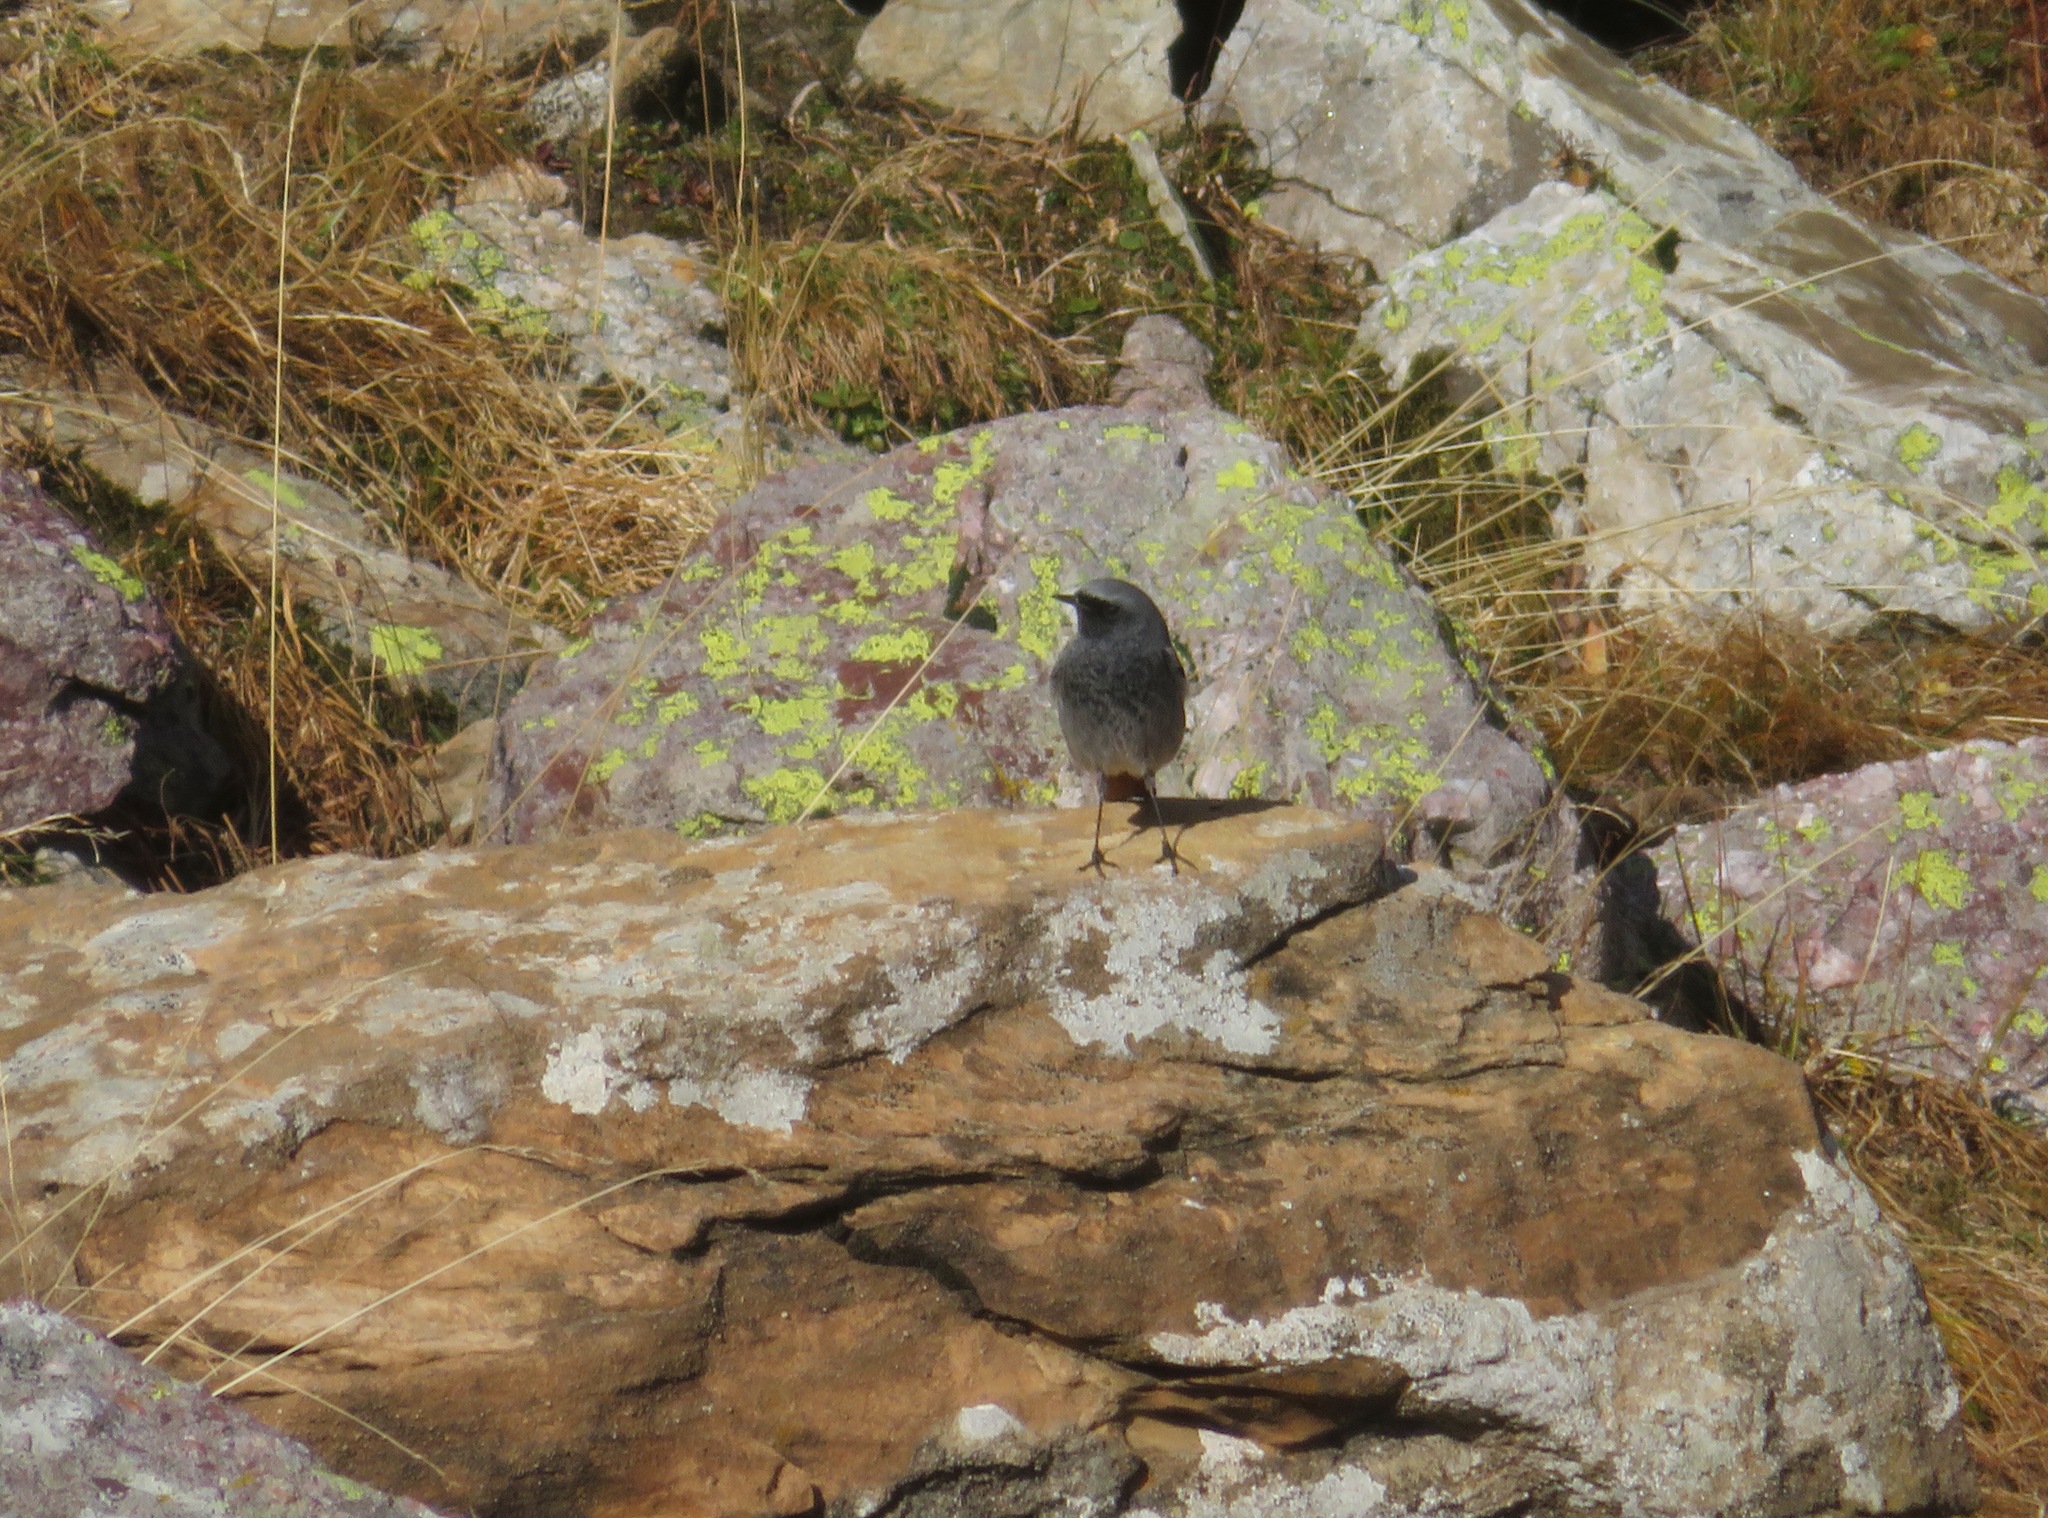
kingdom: Animalia
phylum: Chordata
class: Aves
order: Passeriformes
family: Muscicapidae
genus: Phoenicurus
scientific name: Phoenicurus ochruros
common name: Black redstart
